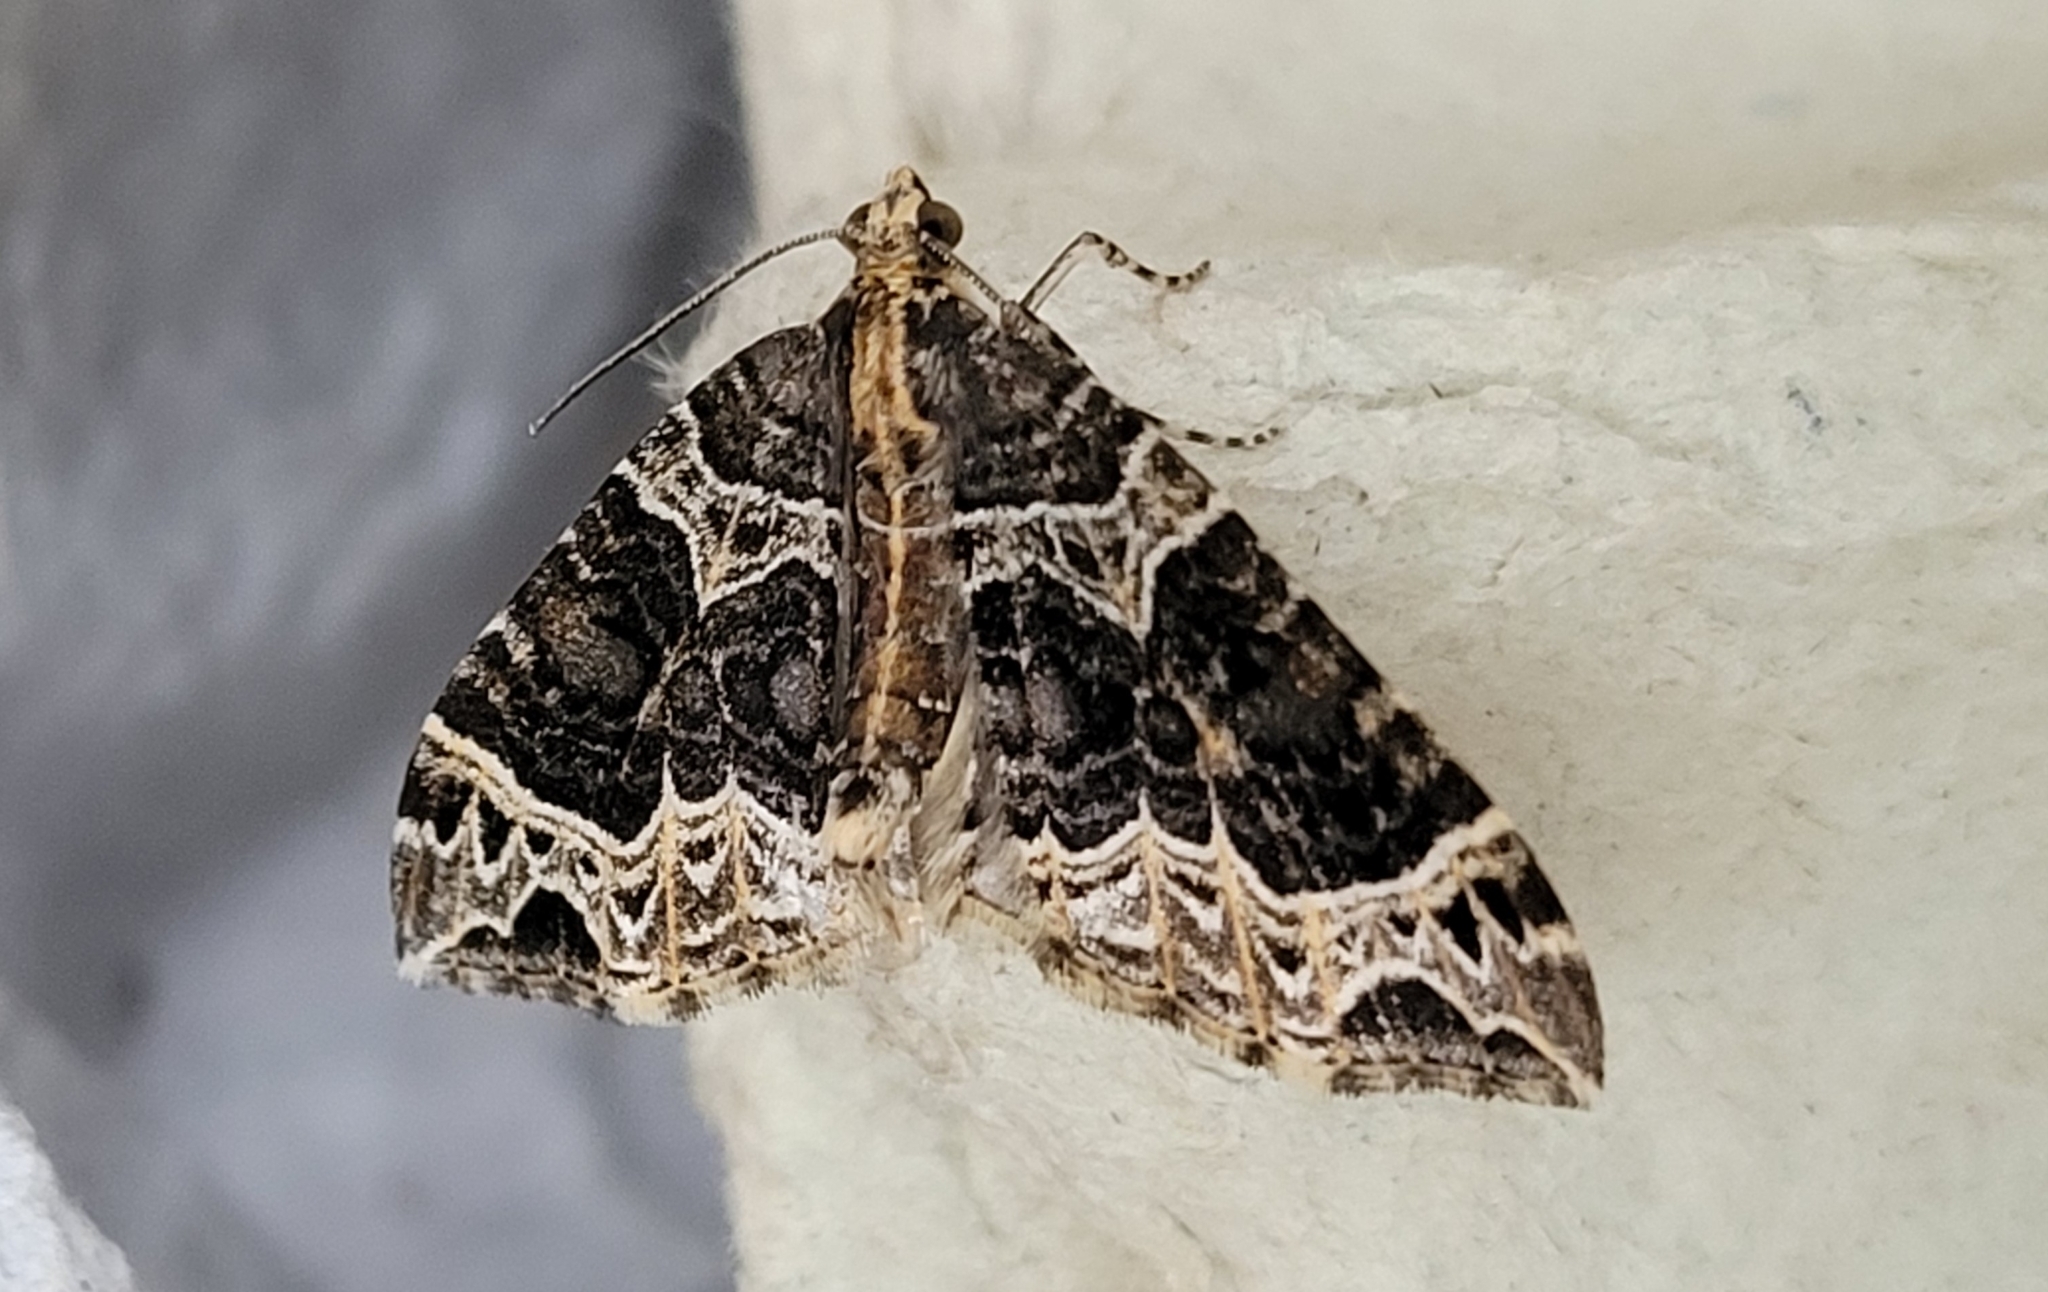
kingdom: Animalia
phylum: Arthropoda
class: Insecta
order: Lepidoptera
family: Geometridae
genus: Ecliptopera
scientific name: Ecliptopera silaceata
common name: Small phoenix
